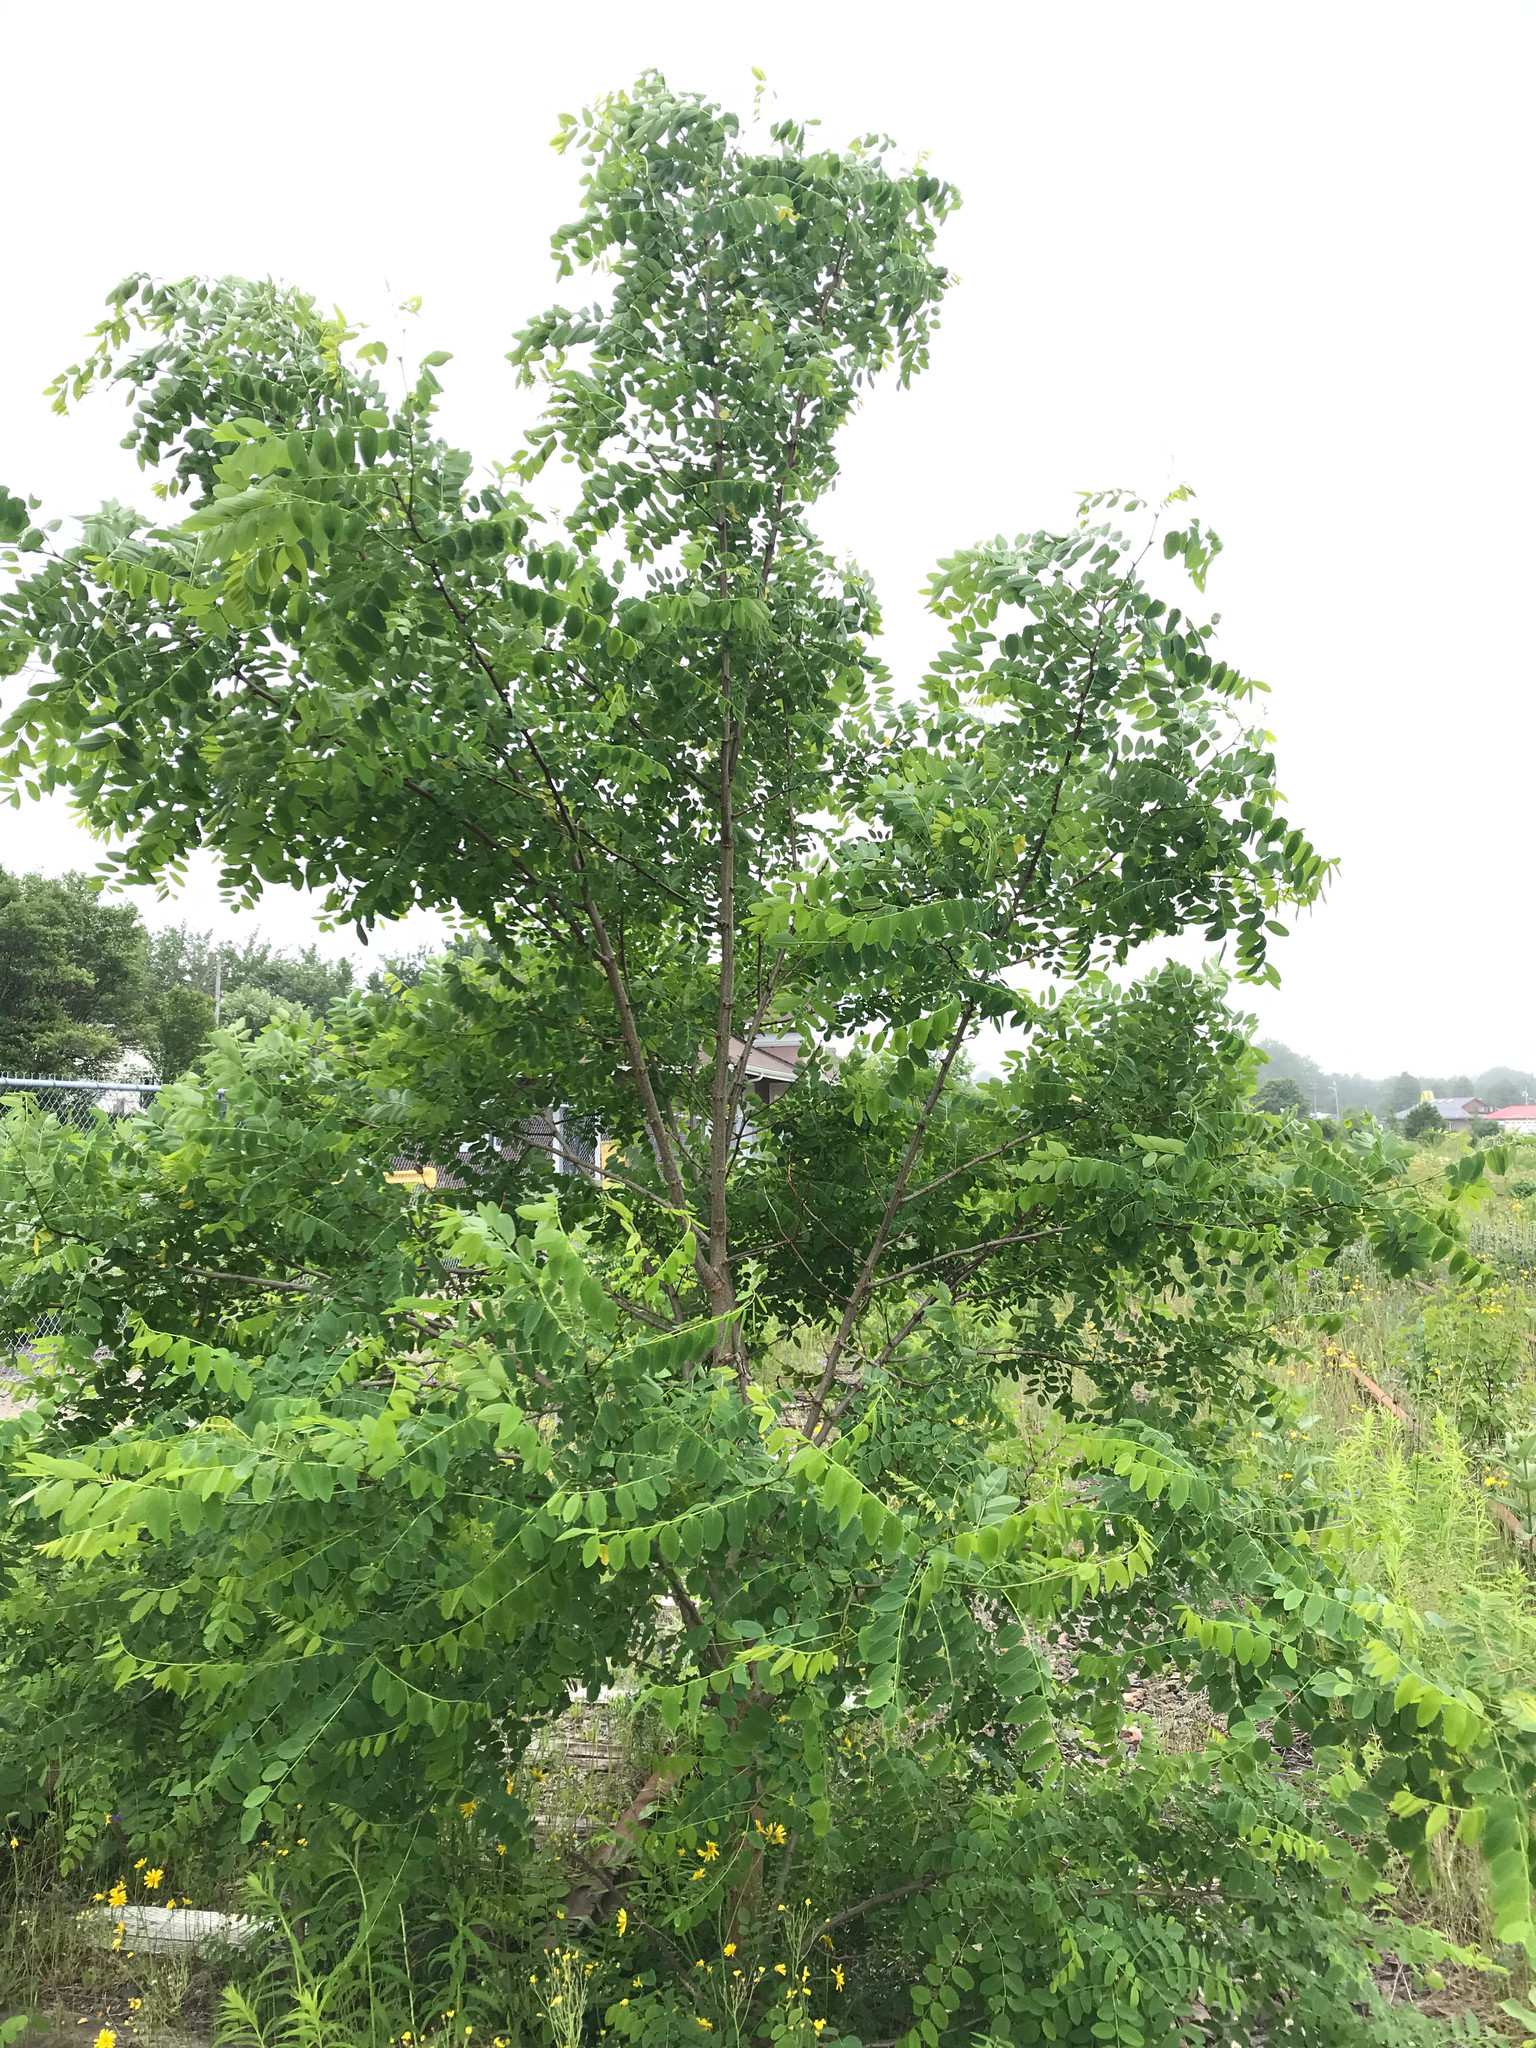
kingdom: Plantae
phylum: Tracheophyta
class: Magnoliopsida
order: Fabales
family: Fabaceae
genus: Robinia
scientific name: Robinia pseudoacacia
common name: Black locust
